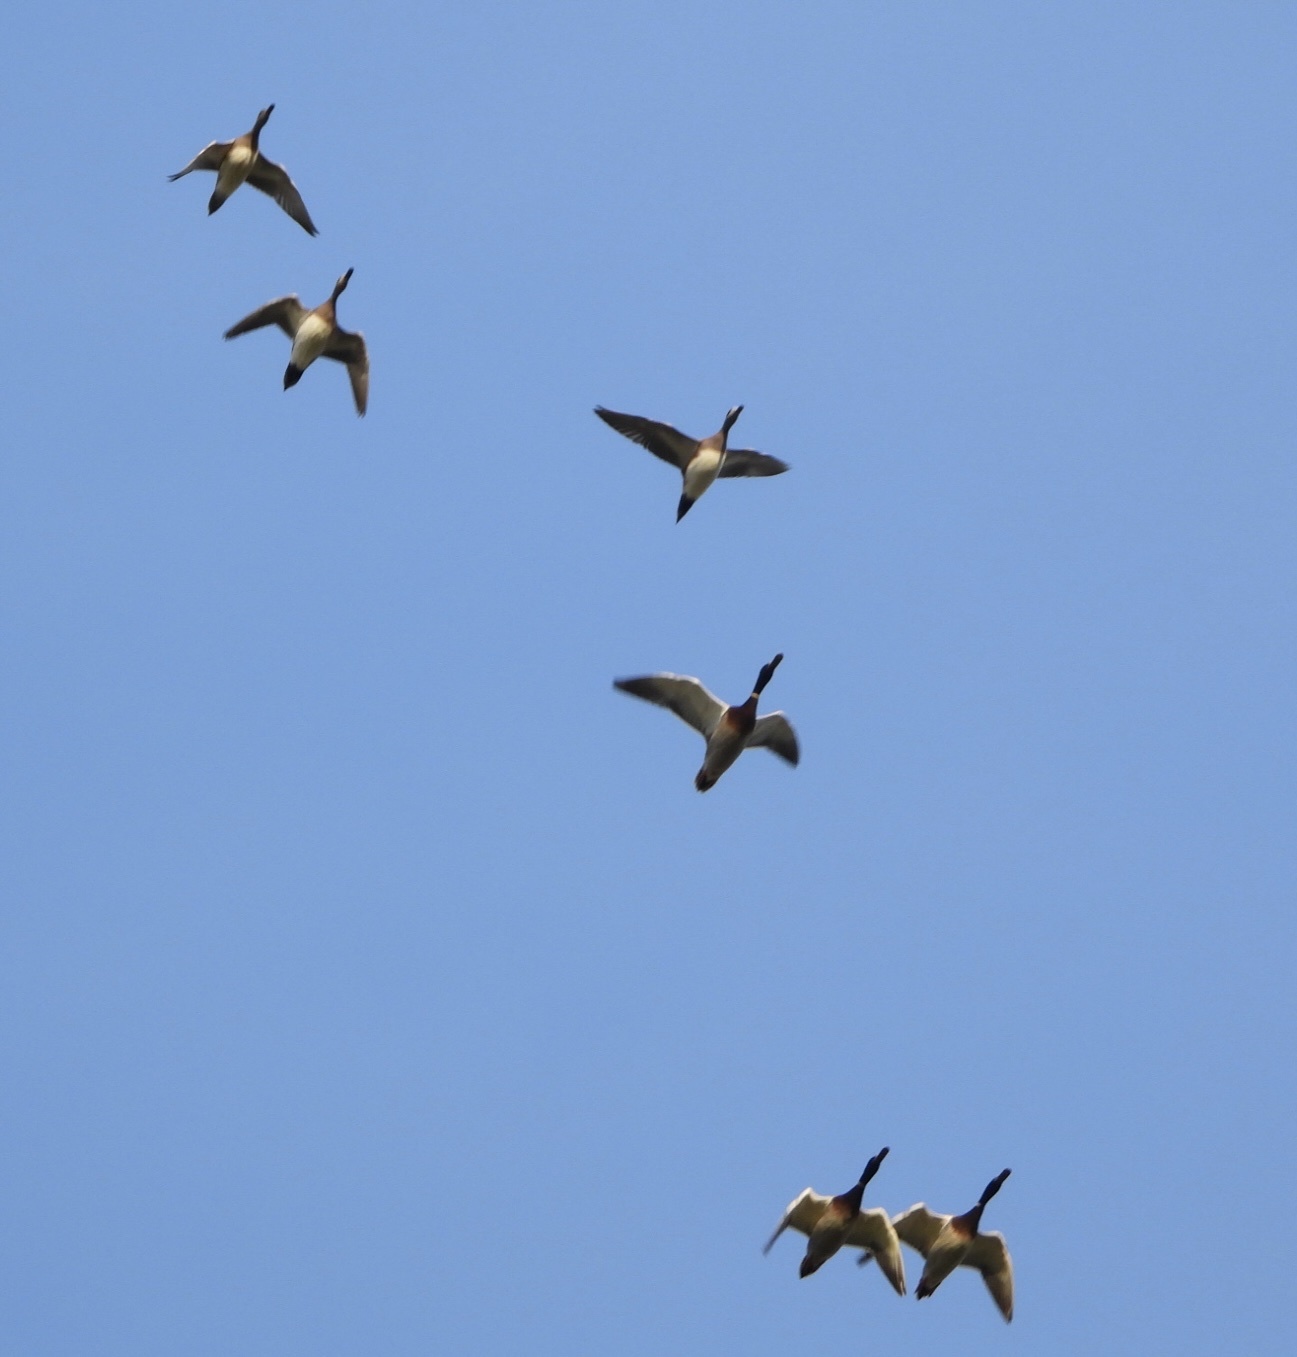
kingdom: Animalia
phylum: Chordata
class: Aves
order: Anseriformes
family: Anatidae
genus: Anas
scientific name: Anas platyrhynchos
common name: Mallard
